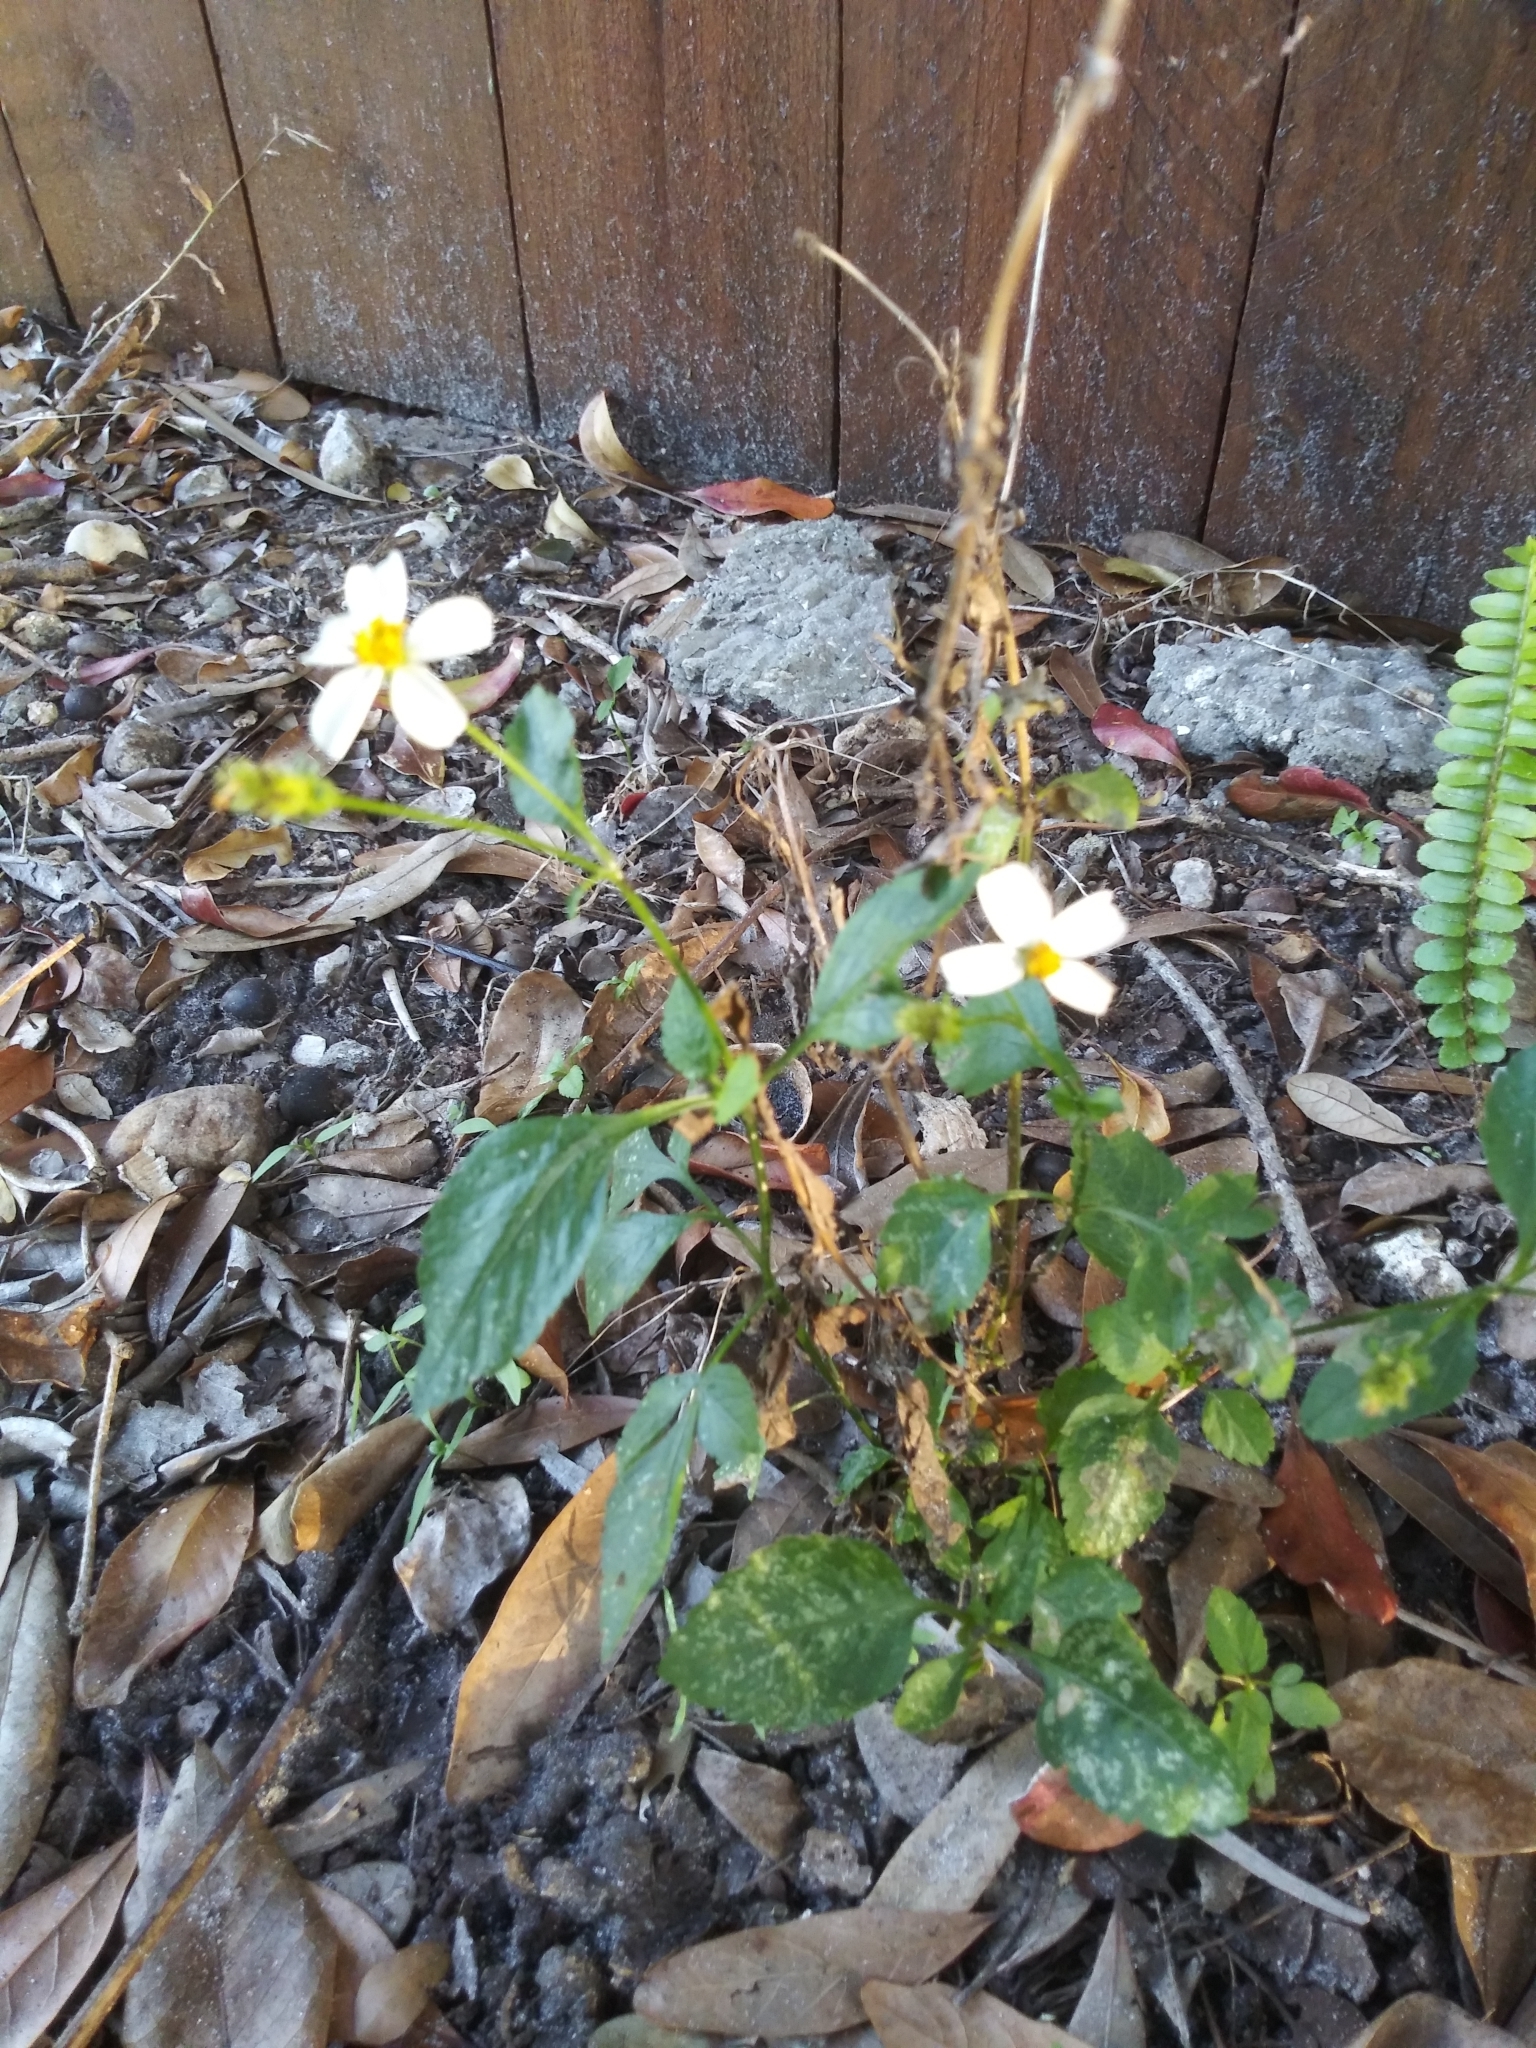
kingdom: Plantae
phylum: Tracheophyta
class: Magnoliopsida
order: Asterales
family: Asteraceae
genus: Bidens
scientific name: Bidens alba
